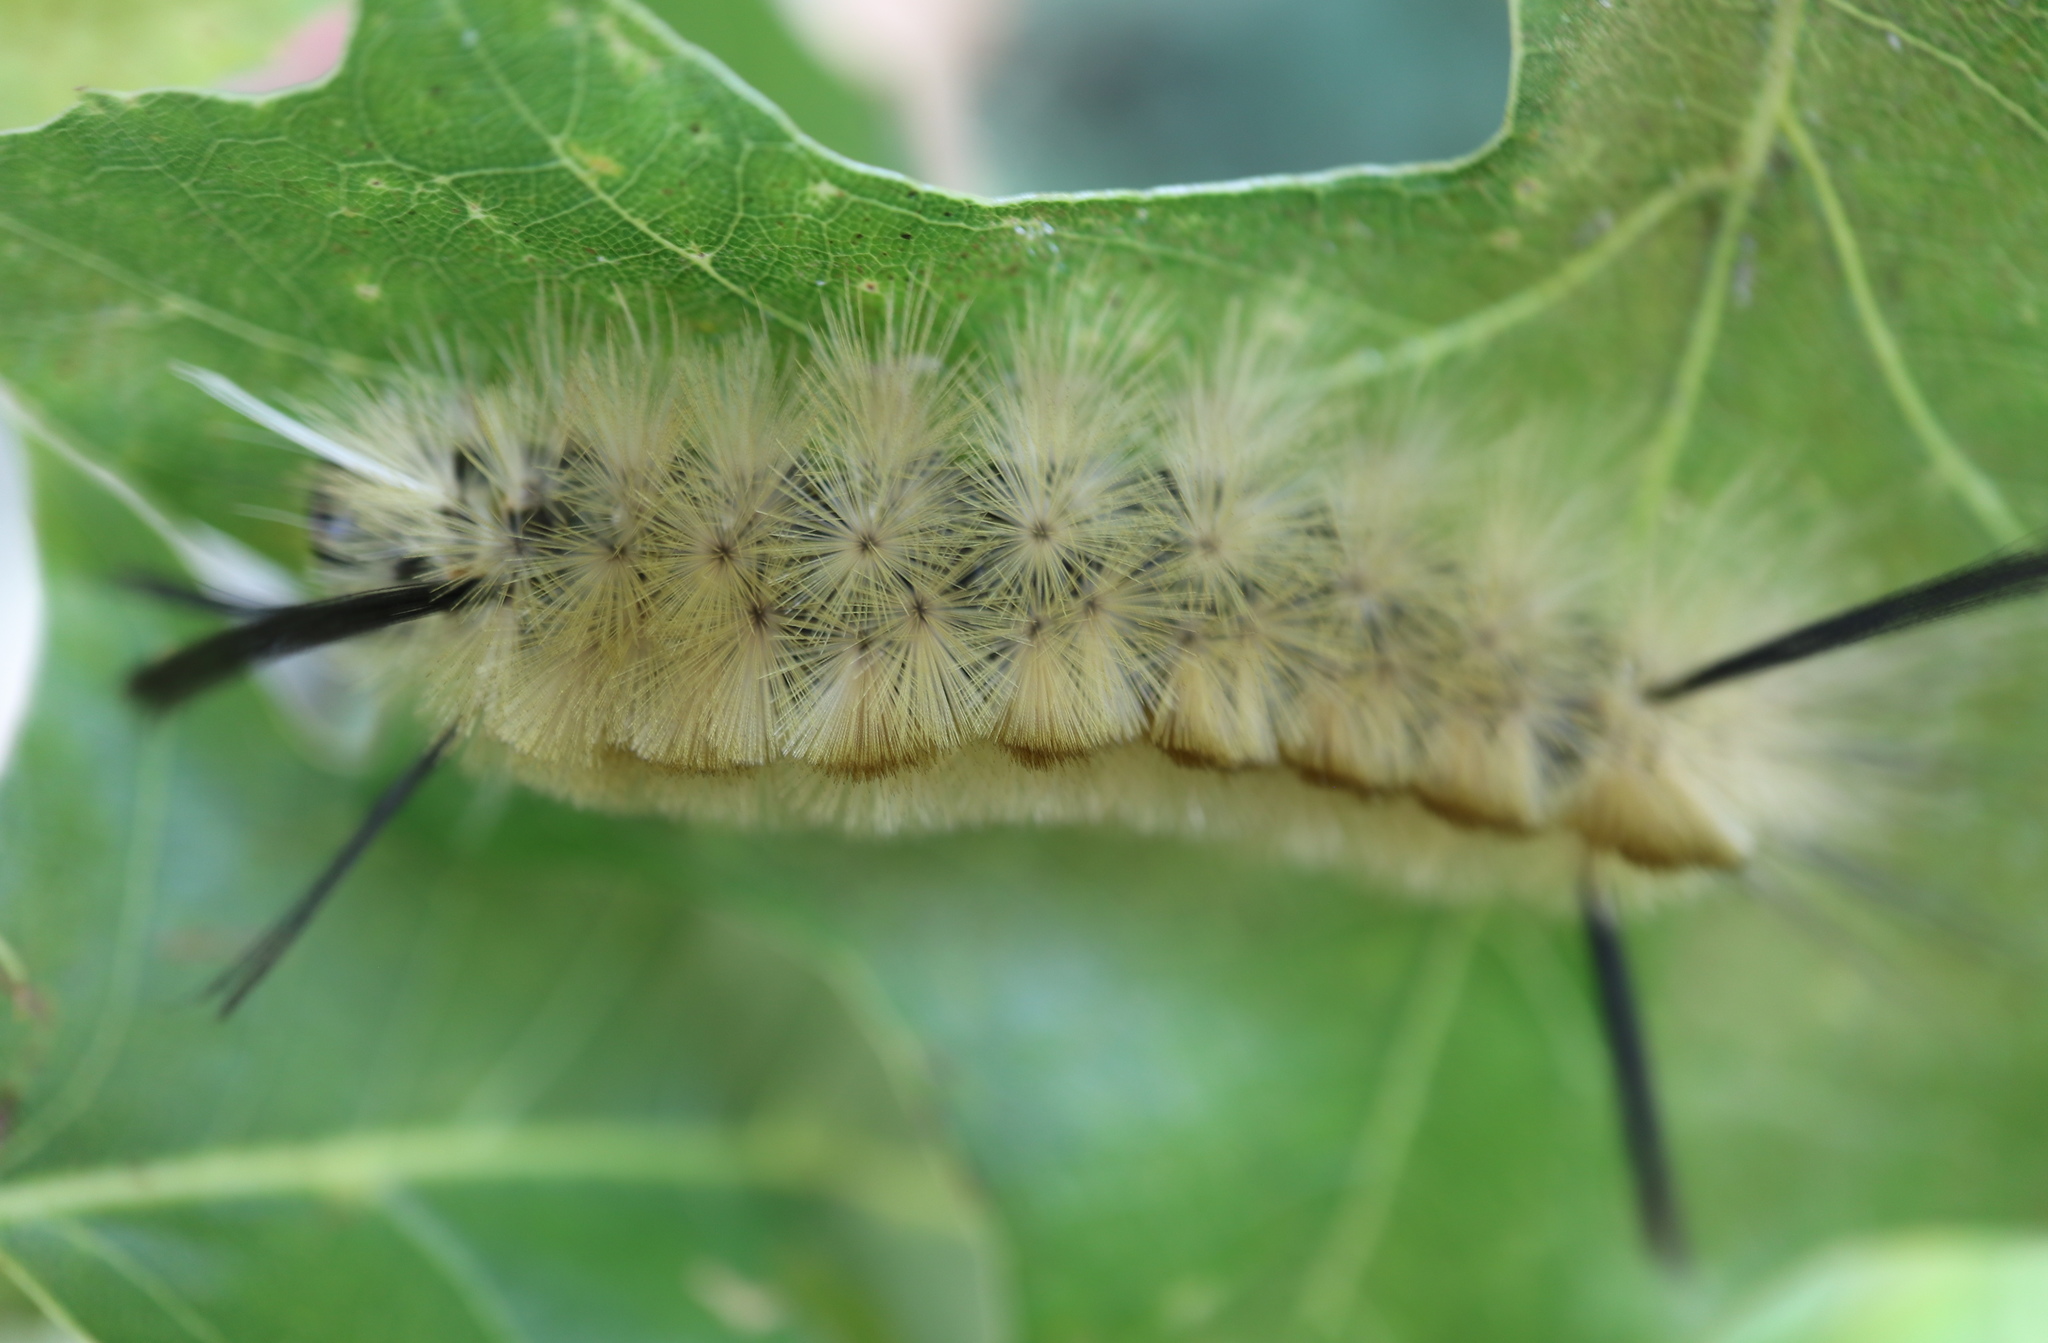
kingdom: Animalia
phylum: Arthropoda
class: Insecta
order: Lepidoptera
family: Erebidae
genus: Halysidota
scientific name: Halysidota tessellaris
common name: Banded tussock moth
